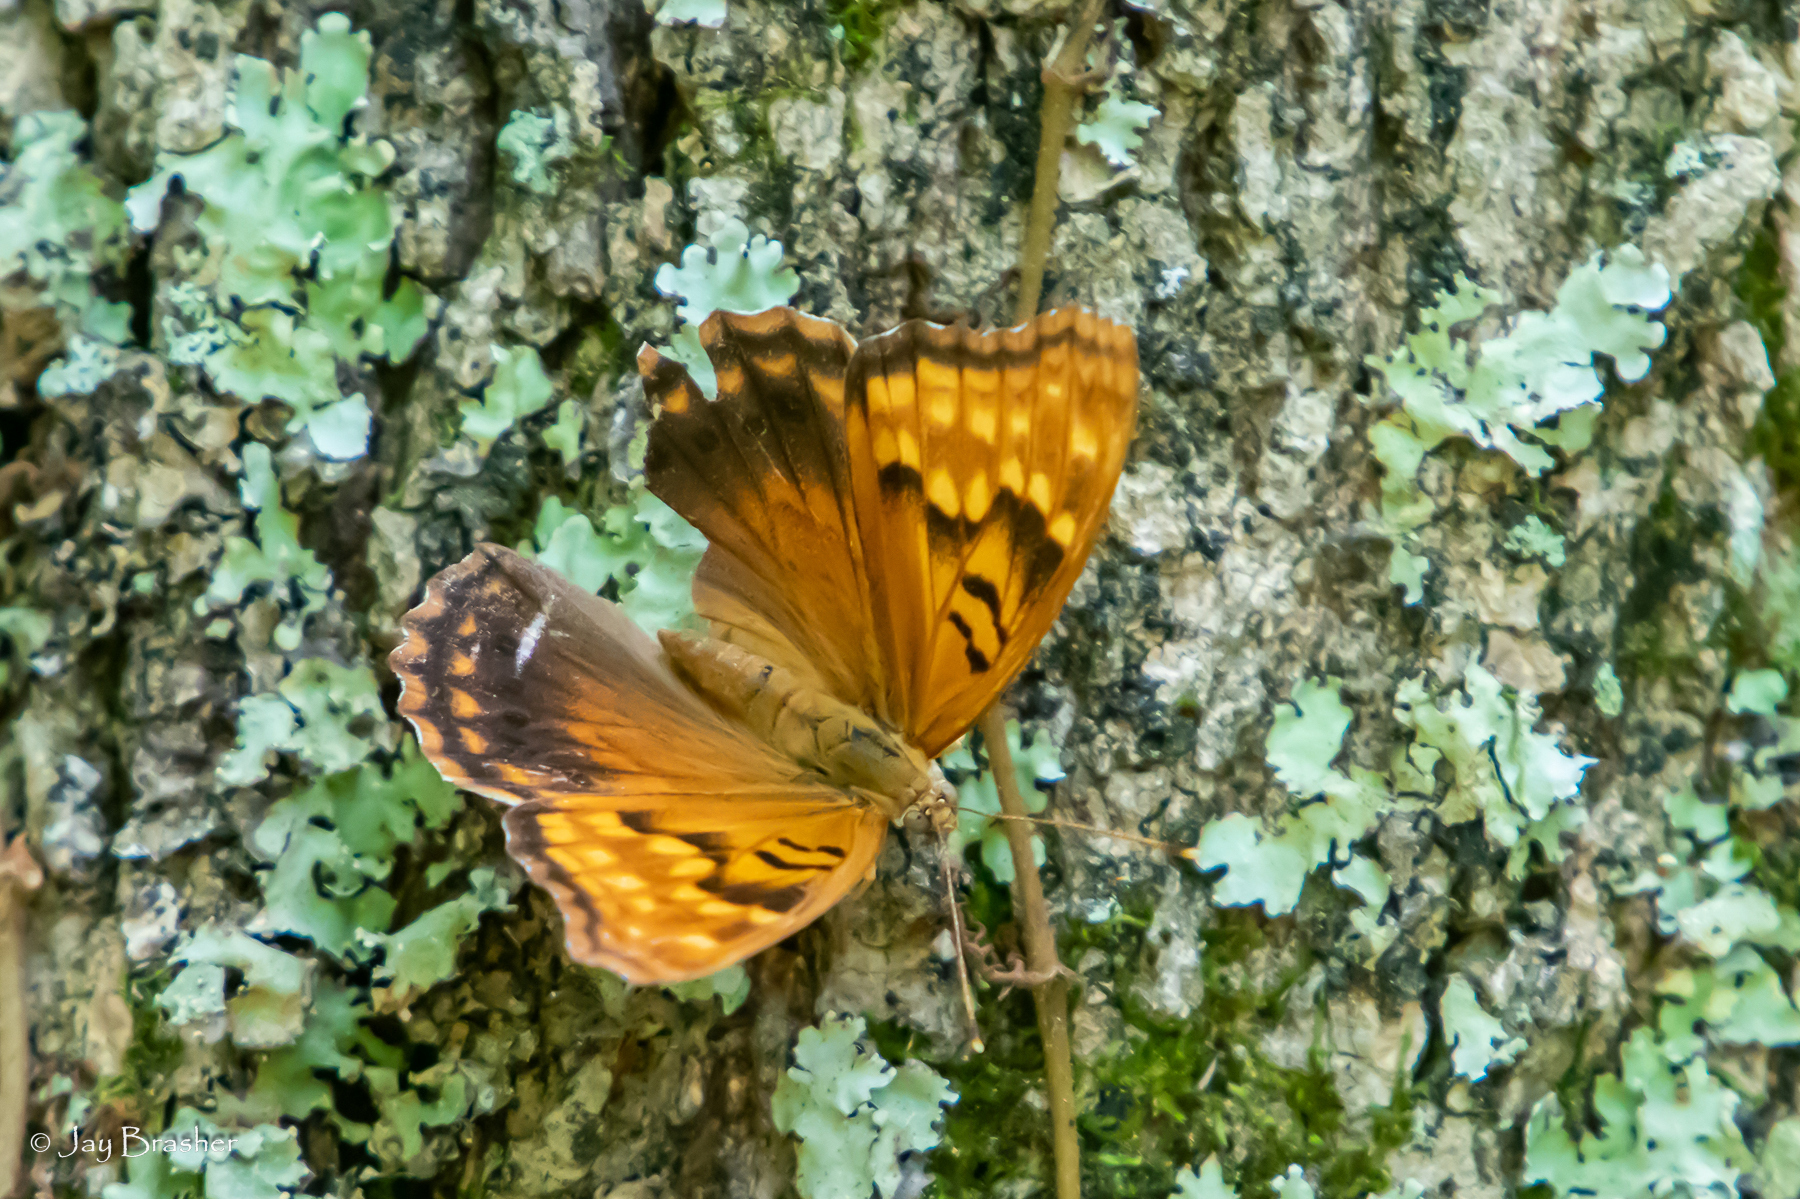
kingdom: Animalia
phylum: Arthropoda
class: Insecta
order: Lepidoptera
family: Nymphalidae
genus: Asterocampa
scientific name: Asterocampa clyton
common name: Tawny emperor
